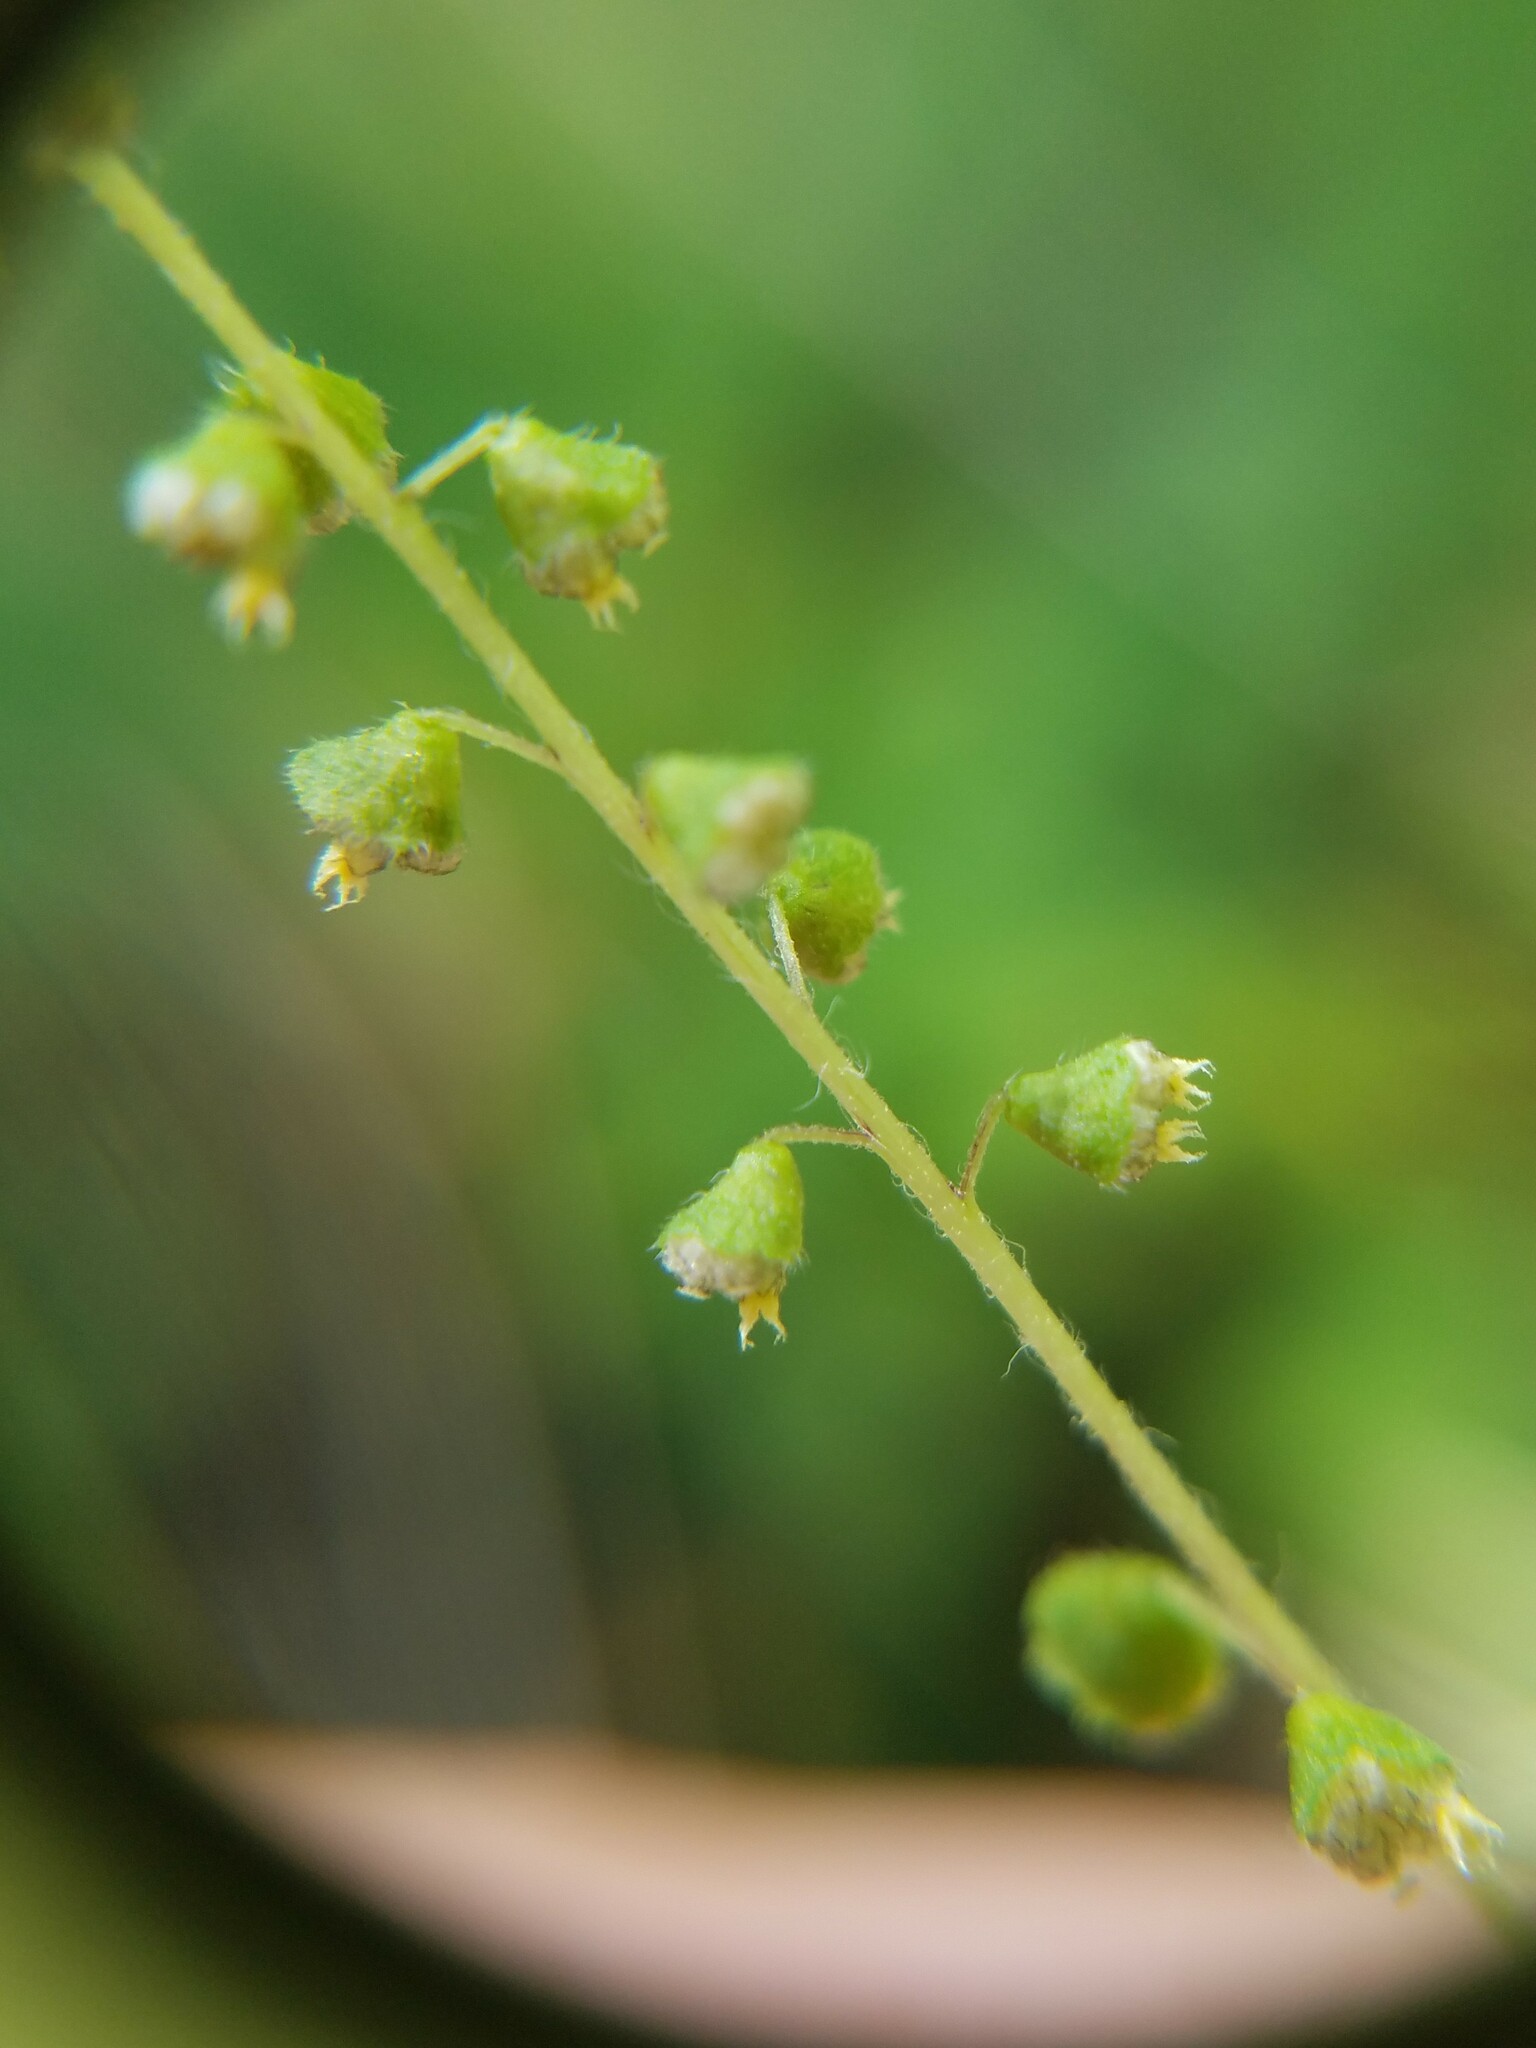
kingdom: Plantae
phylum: Tracheophyta
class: Magnoliopsida
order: Asterales
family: Asteraceae
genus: Ambrosia
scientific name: Ambrosia artemisiifolia
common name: Annual ragweed
